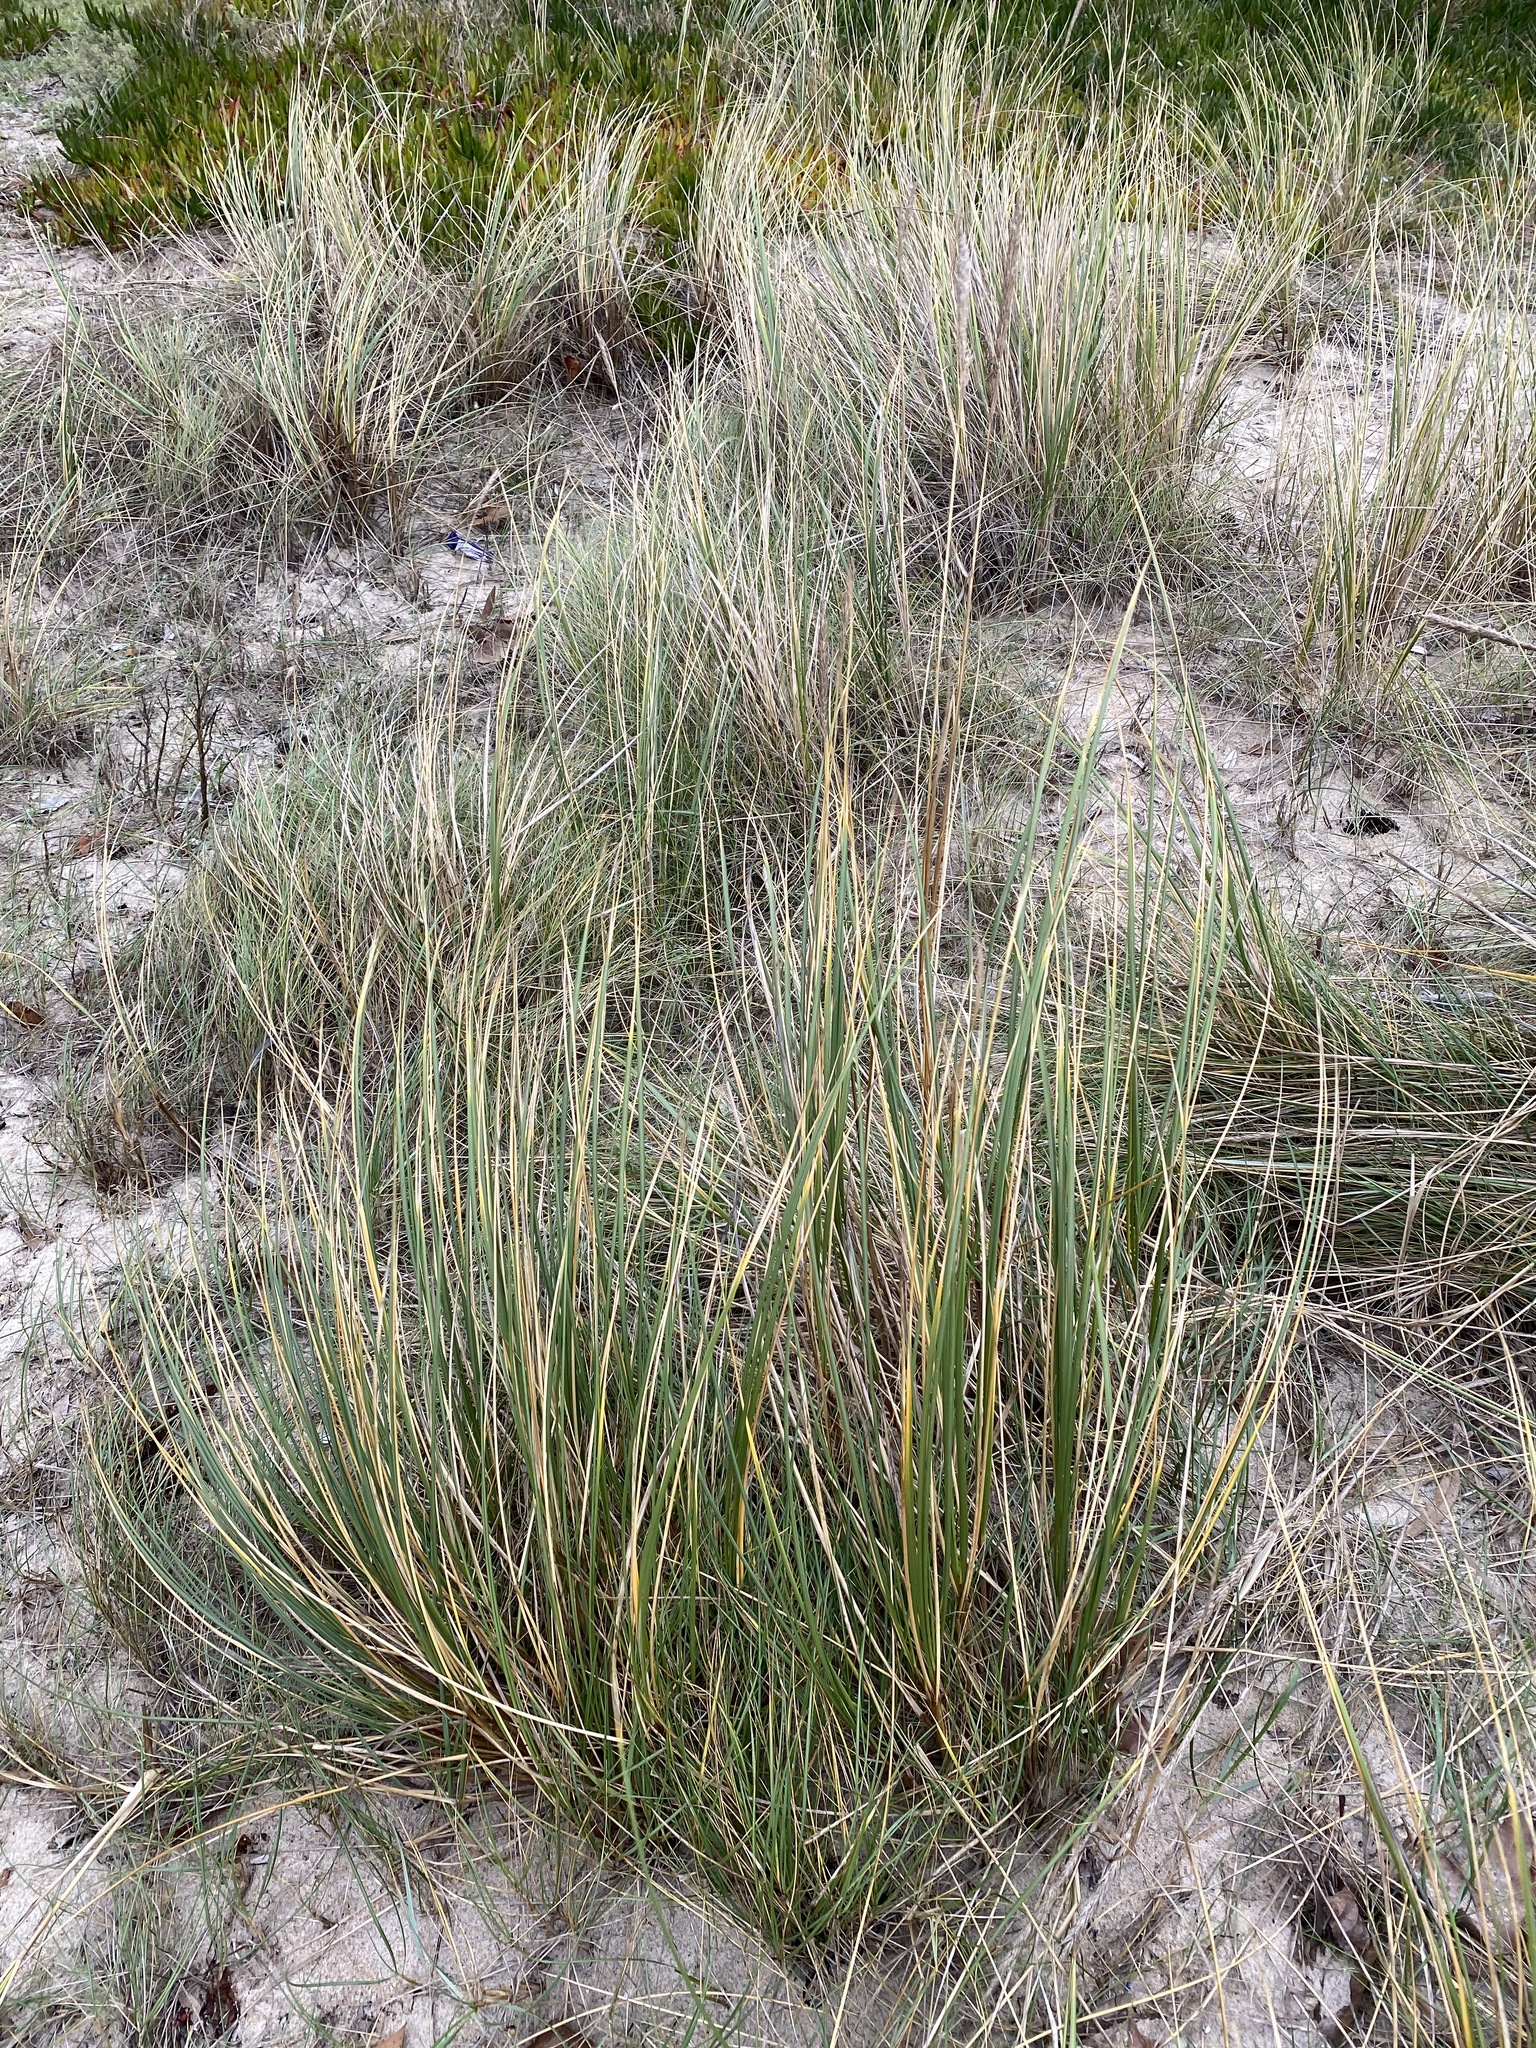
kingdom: Plantae
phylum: Tracheophyta
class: Liliopsida
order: Poales
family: Poaceae
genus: Calamagrostis
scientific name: Calamagrostis arenaria
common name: European beachgrass
